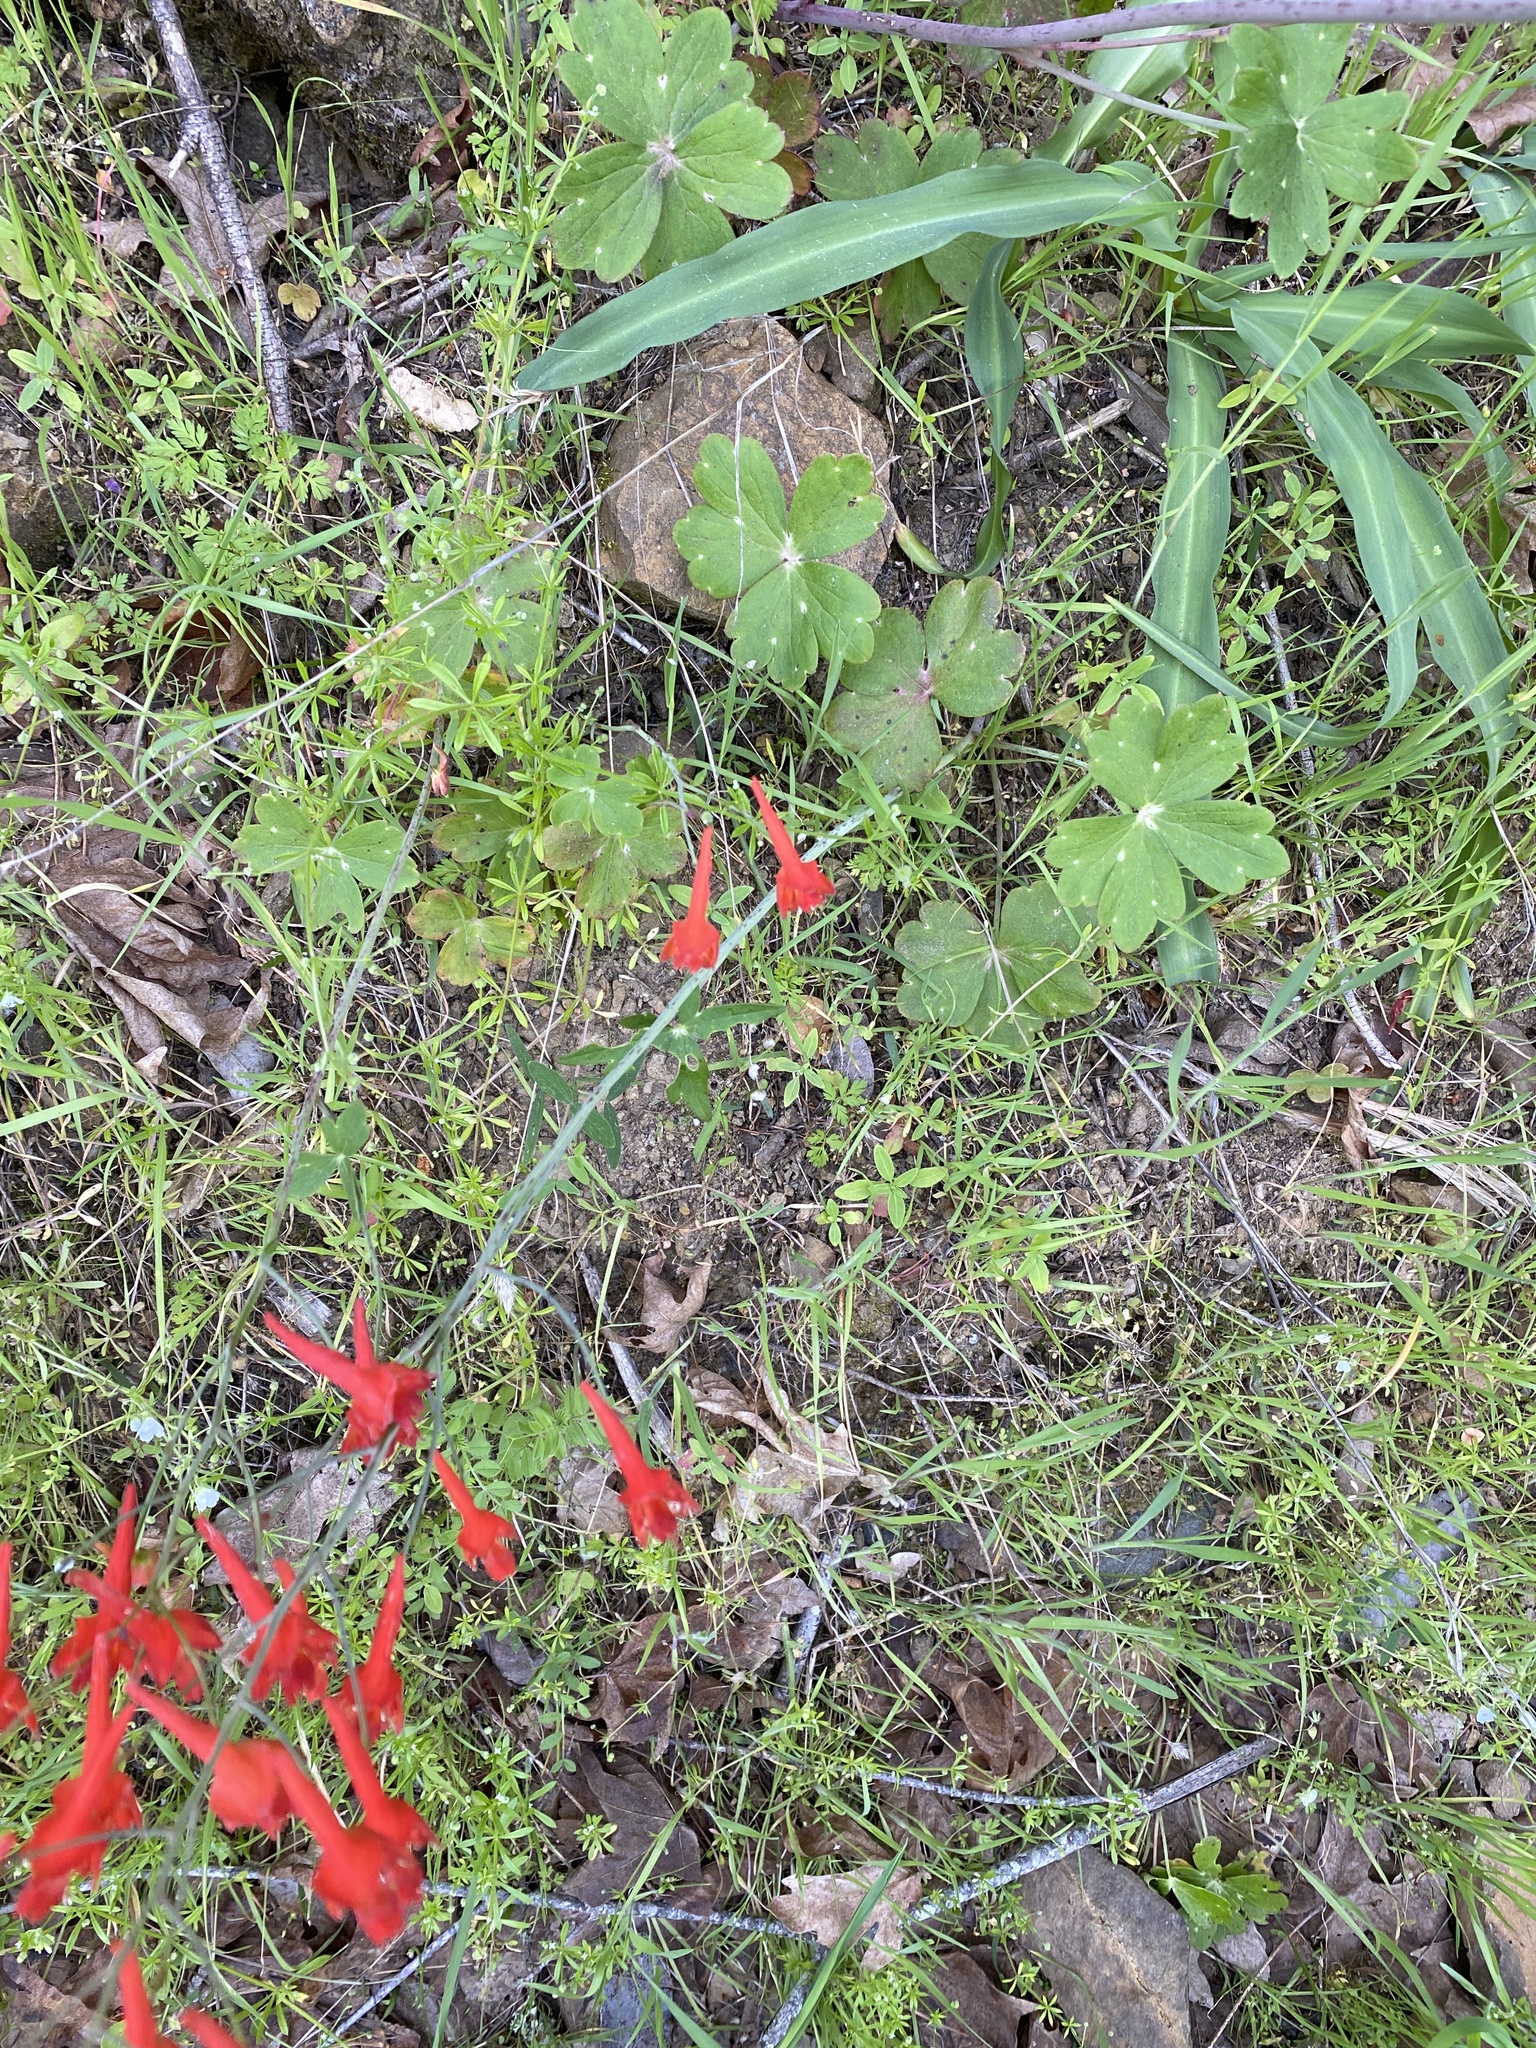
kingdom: Plantae
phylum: Tracheophyta
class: Magnoliopsida
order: Ranunculales
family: Ranunculaceae
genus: Delphinium
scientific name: Delphinium nudicaule
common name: Red larkspur
